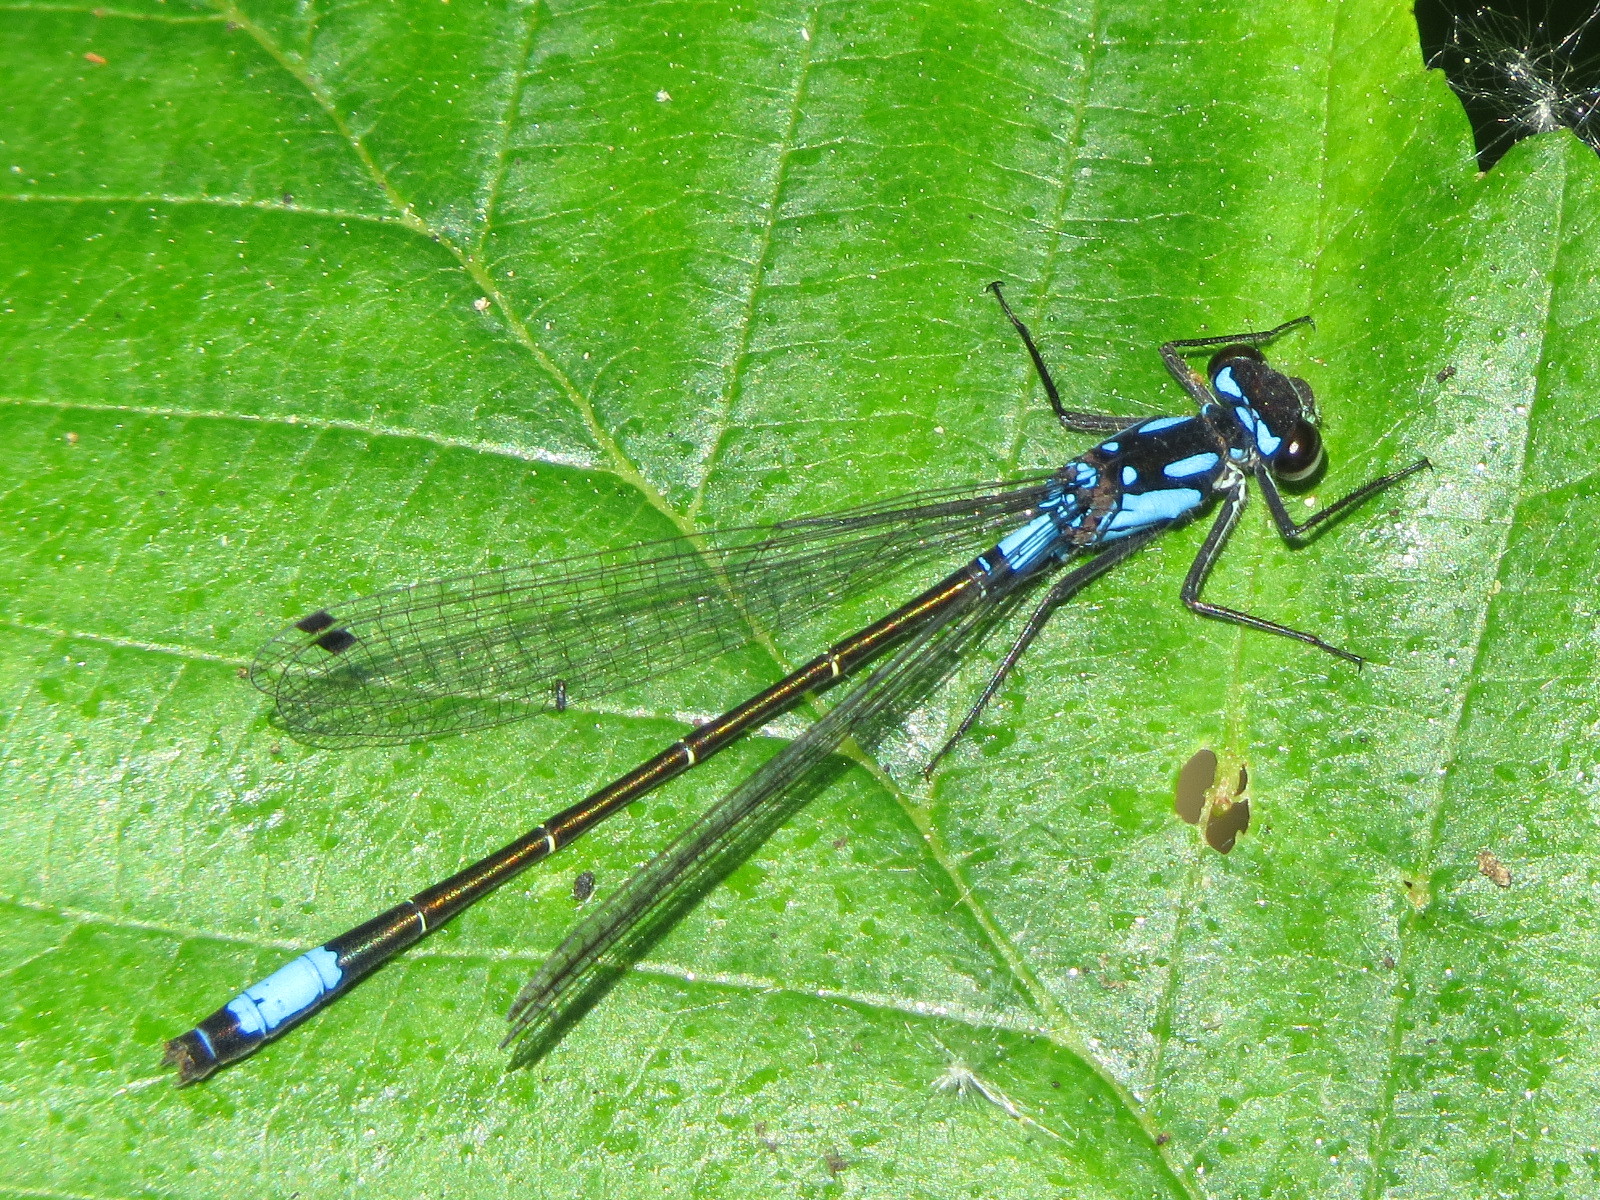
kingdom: Animalia
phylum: Arthropoda
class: Insecta
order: Odonata
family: Coenagrionidae
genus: Zoniagrion
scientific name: Zoniagrion exclamationis
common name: Exclamation damsel
